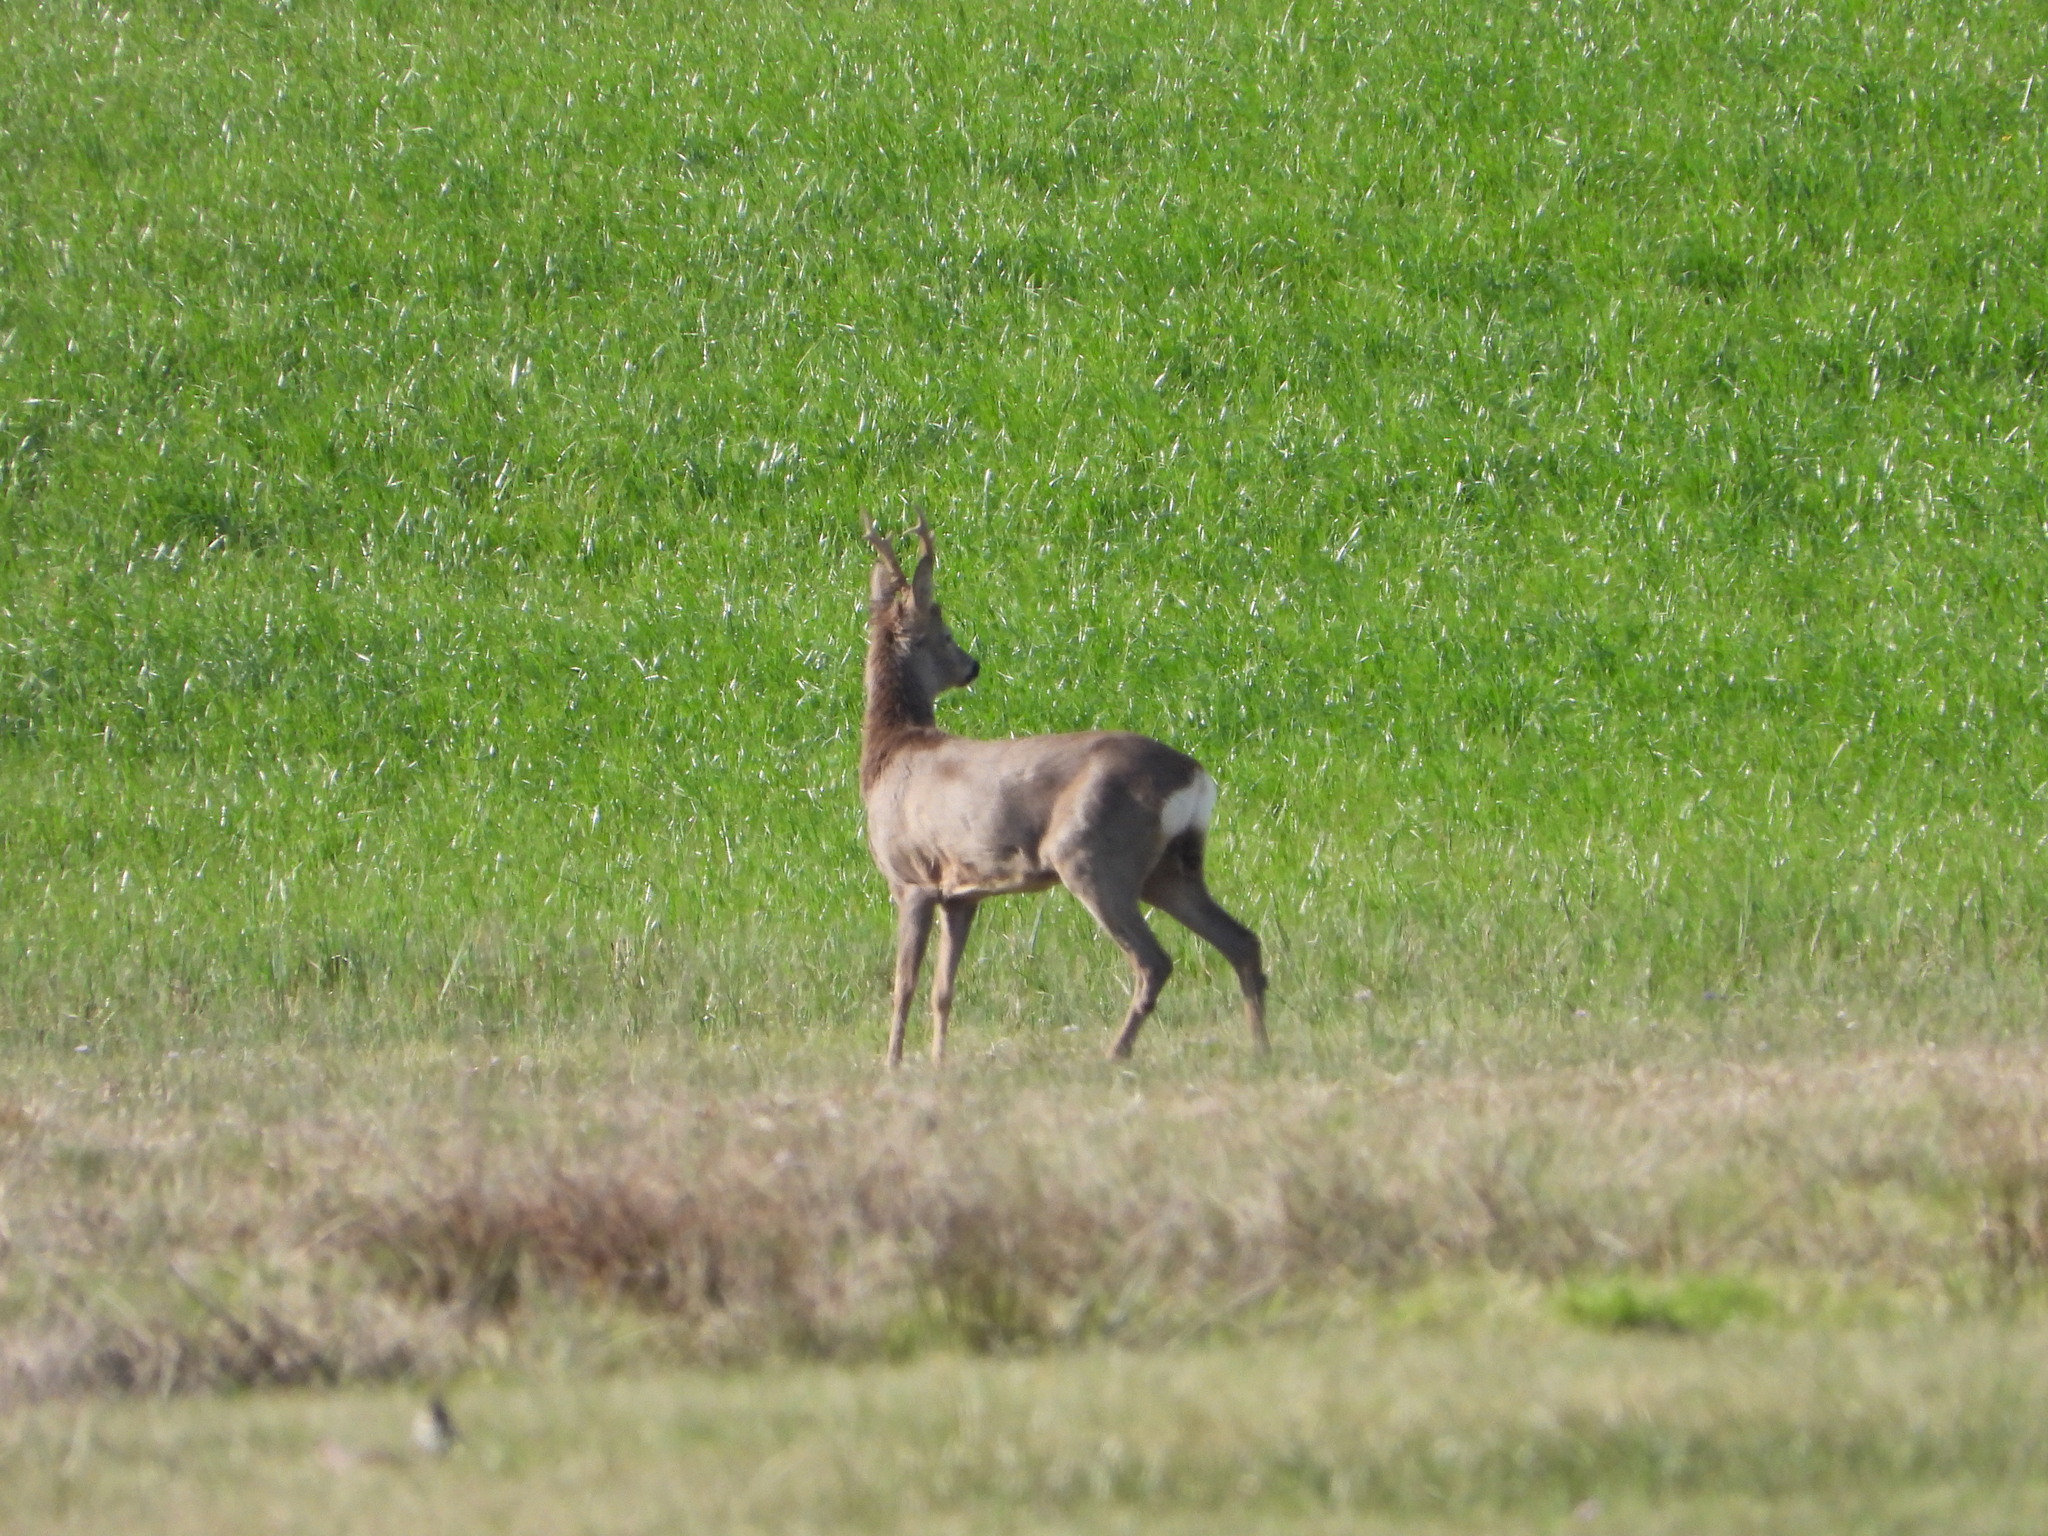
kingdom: Animalia
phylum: Chordata
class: Mammalia
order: Artiodactyla
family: Cervidae
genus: Capreolus
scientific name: Capreolus capreolus
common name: Western roe deer
